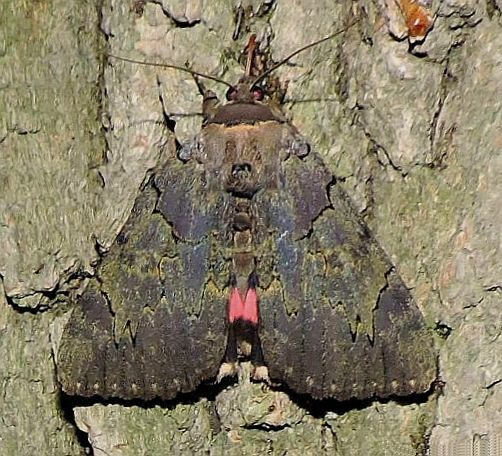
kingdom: Animalia
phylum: Arthropoda
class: Insecta
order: Lepidoptera
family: Erebidae
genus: Catocala
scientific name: Catocala cara
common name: Darling underwing
